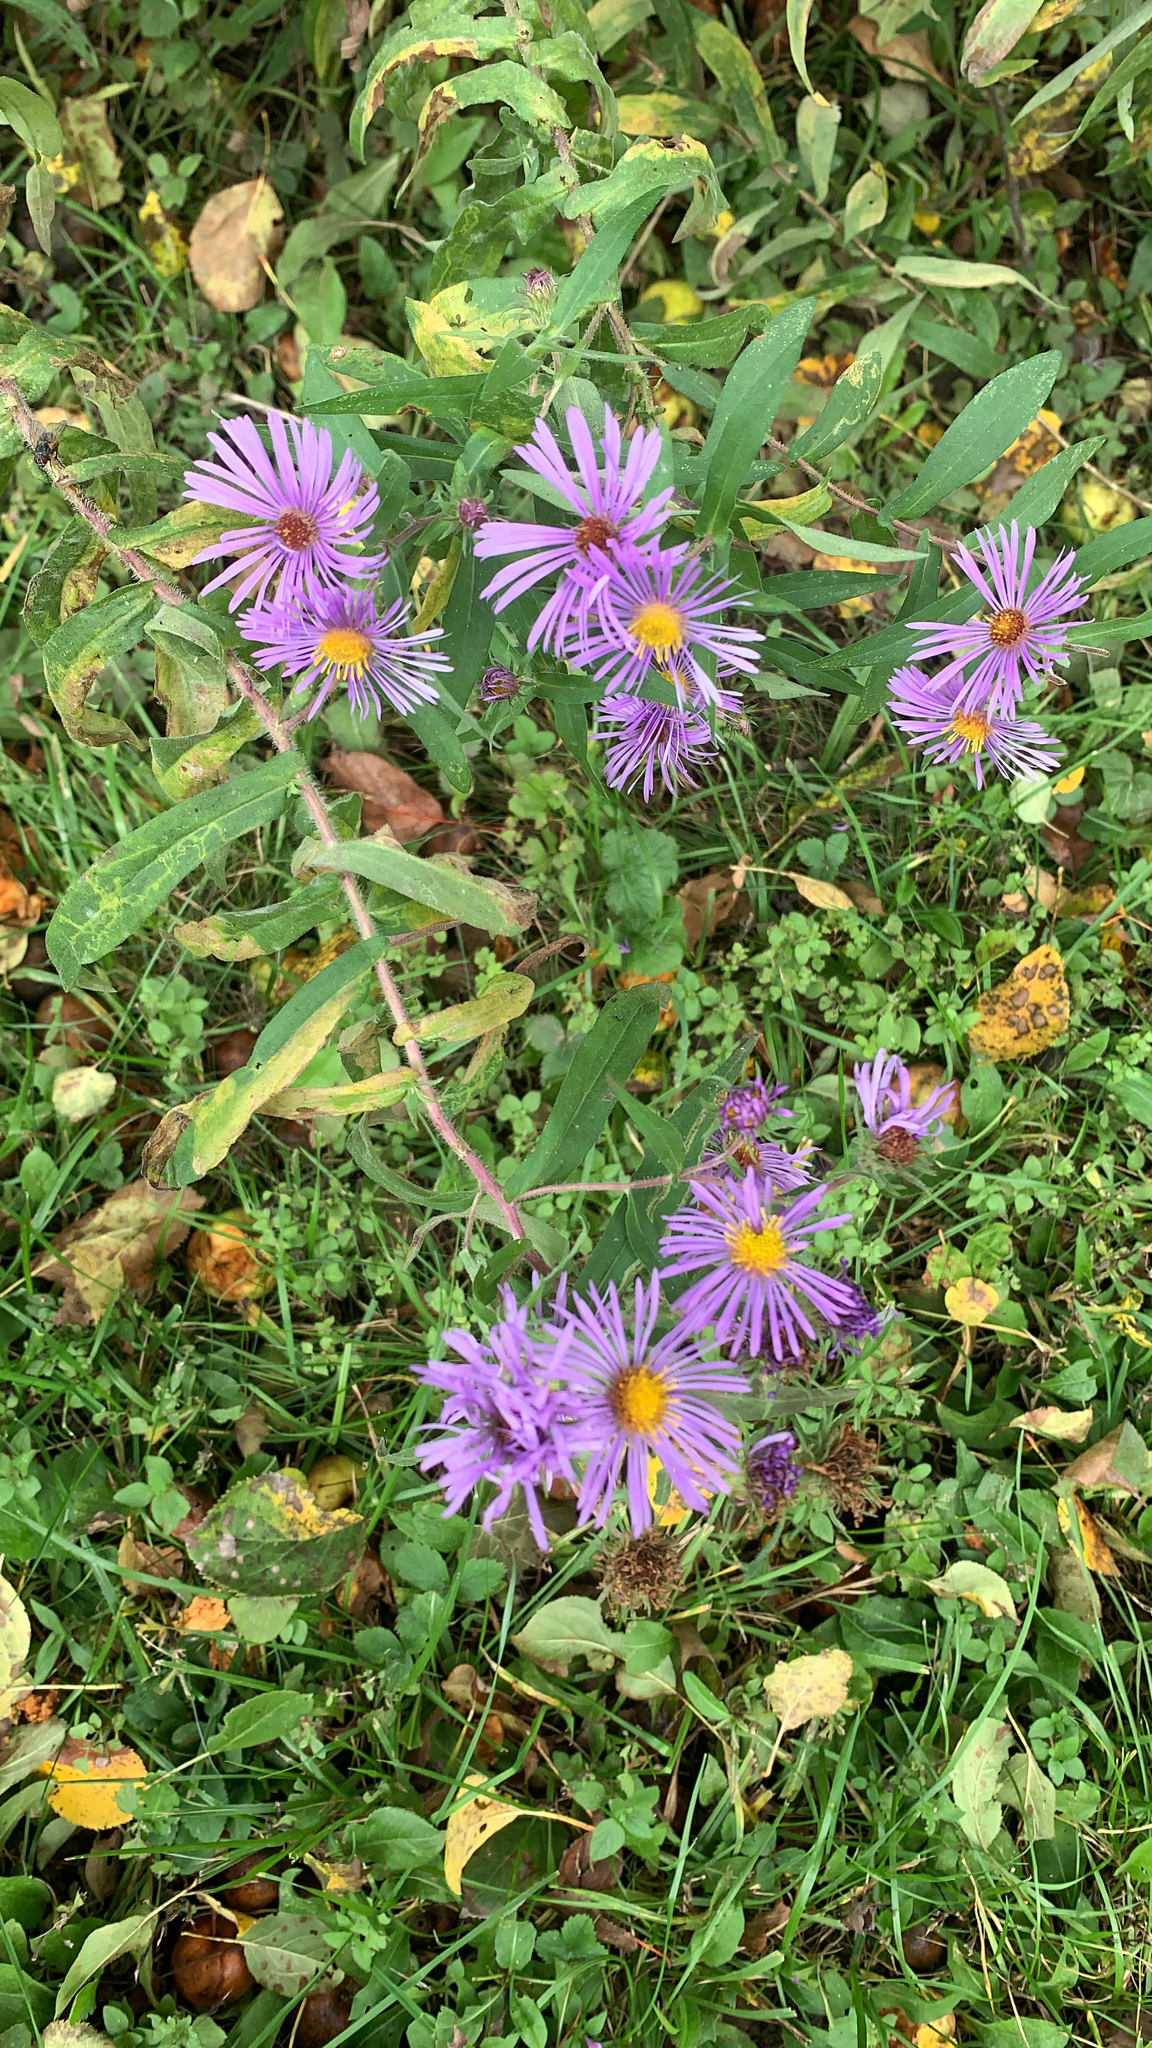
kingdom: Plantae
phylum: Tracheophyta
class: Magnoliopsida
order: Asterales
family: Asteraceae
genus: Symphyotrichum
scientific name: Symphyotrichum novae-angliae
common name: Michaelmas daisy
